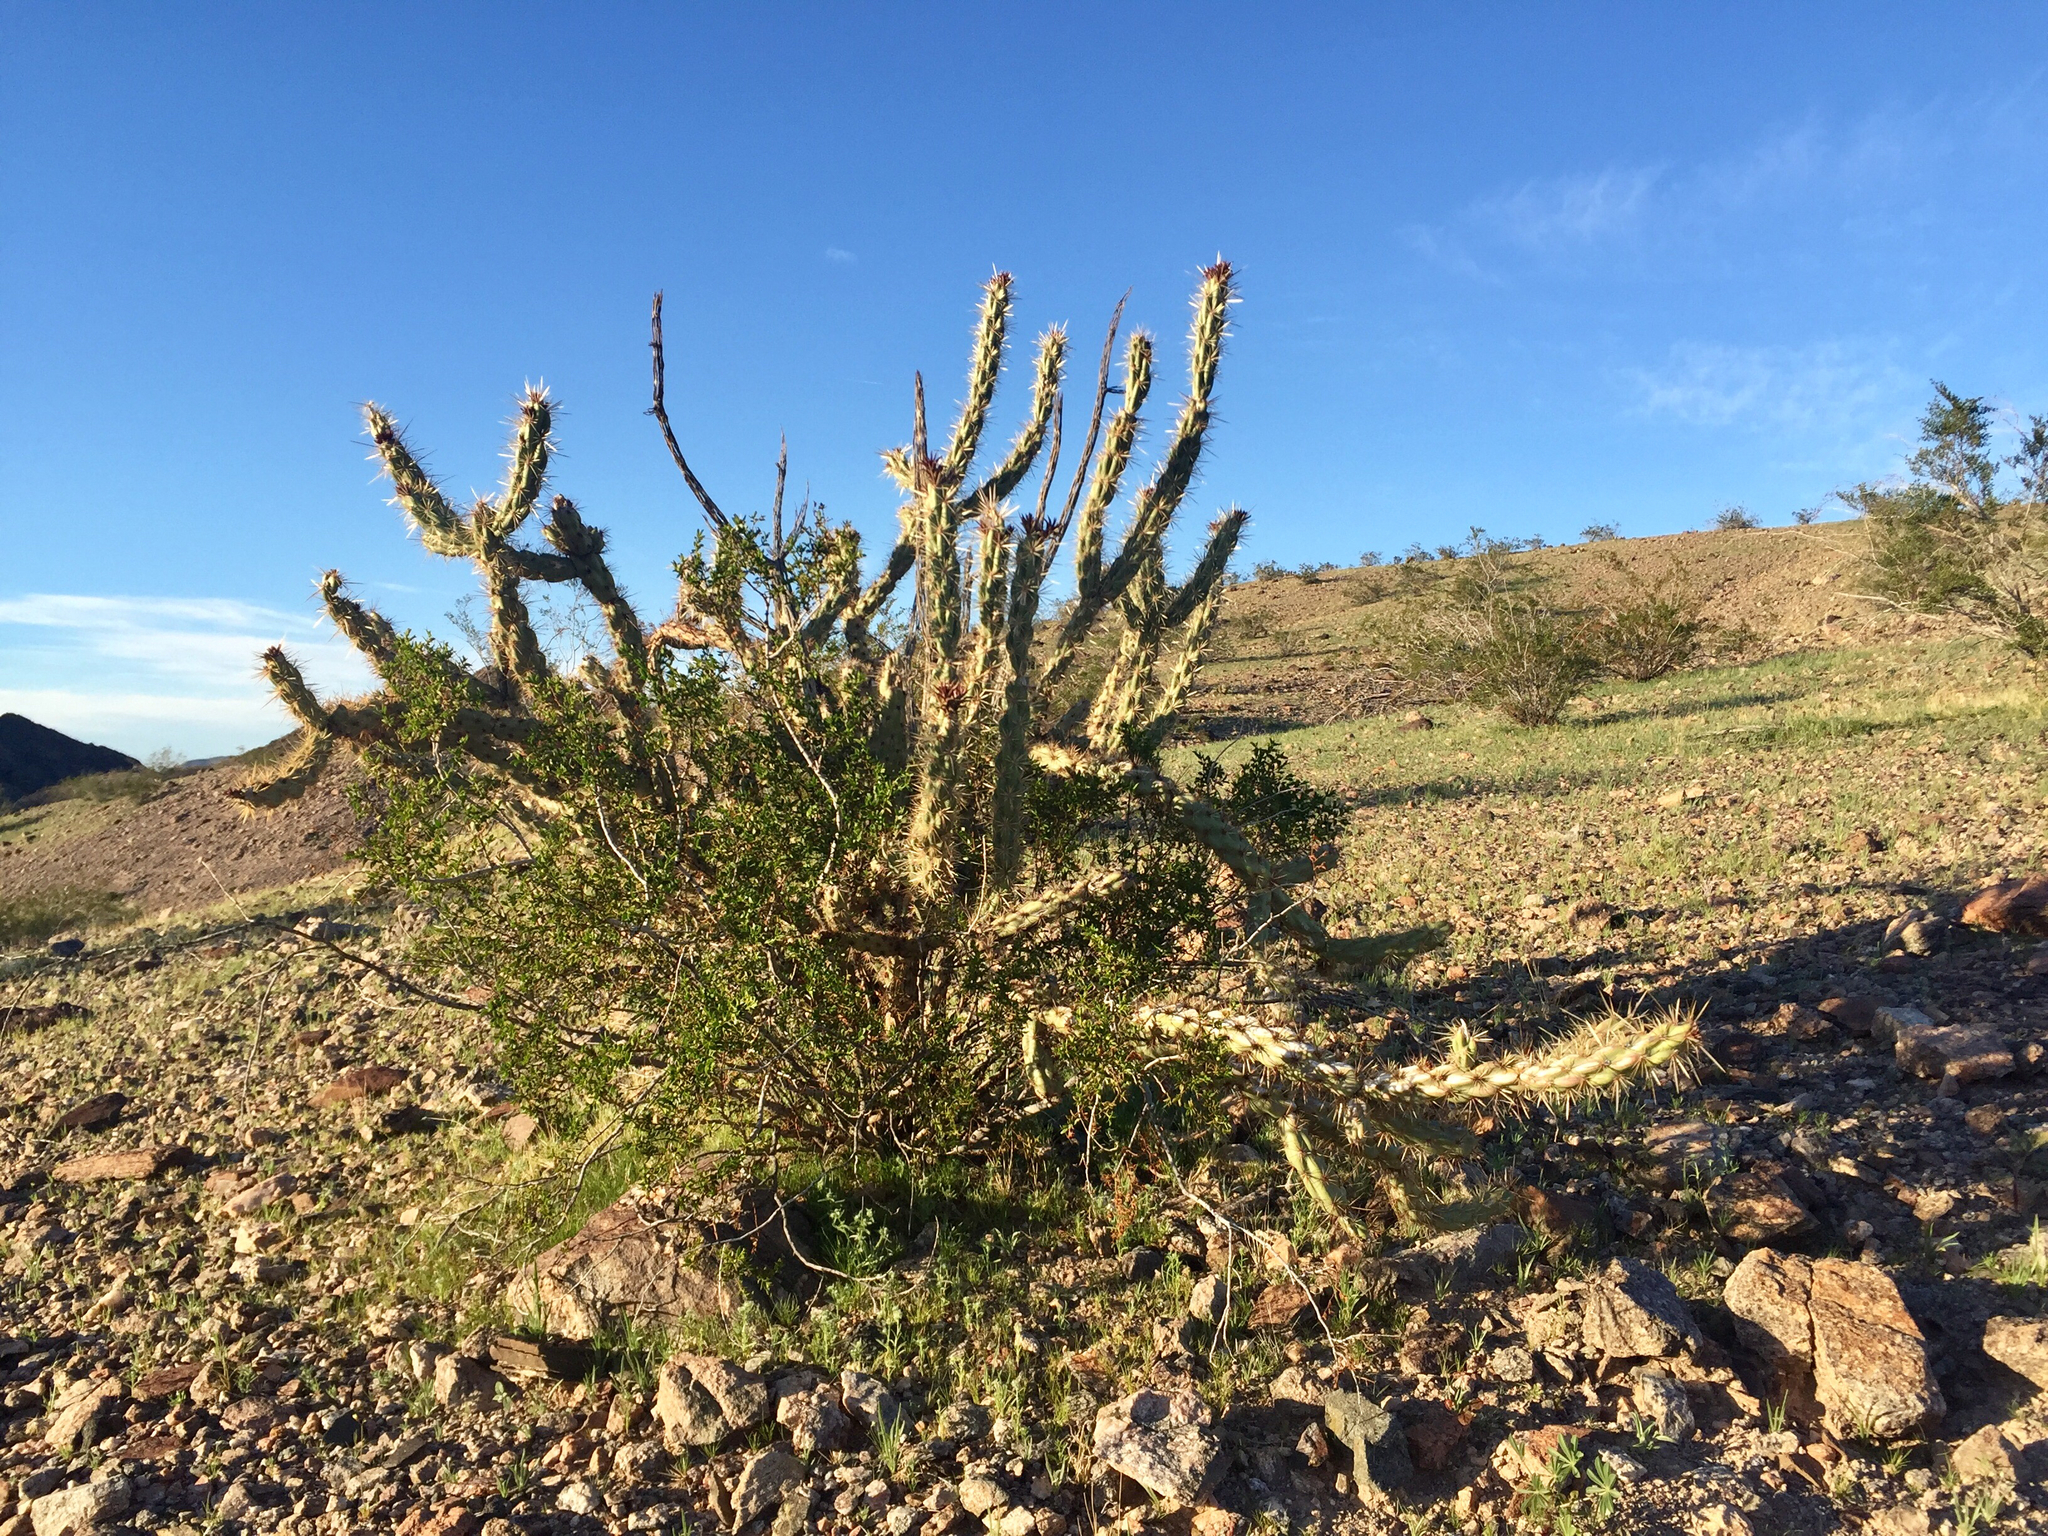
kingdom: Plantae
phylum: Tracheophyta
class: Magnoliopsida
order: Zygophyllales
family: Zygophyllaceae
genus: Larrea
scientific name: Larrea tridentata
